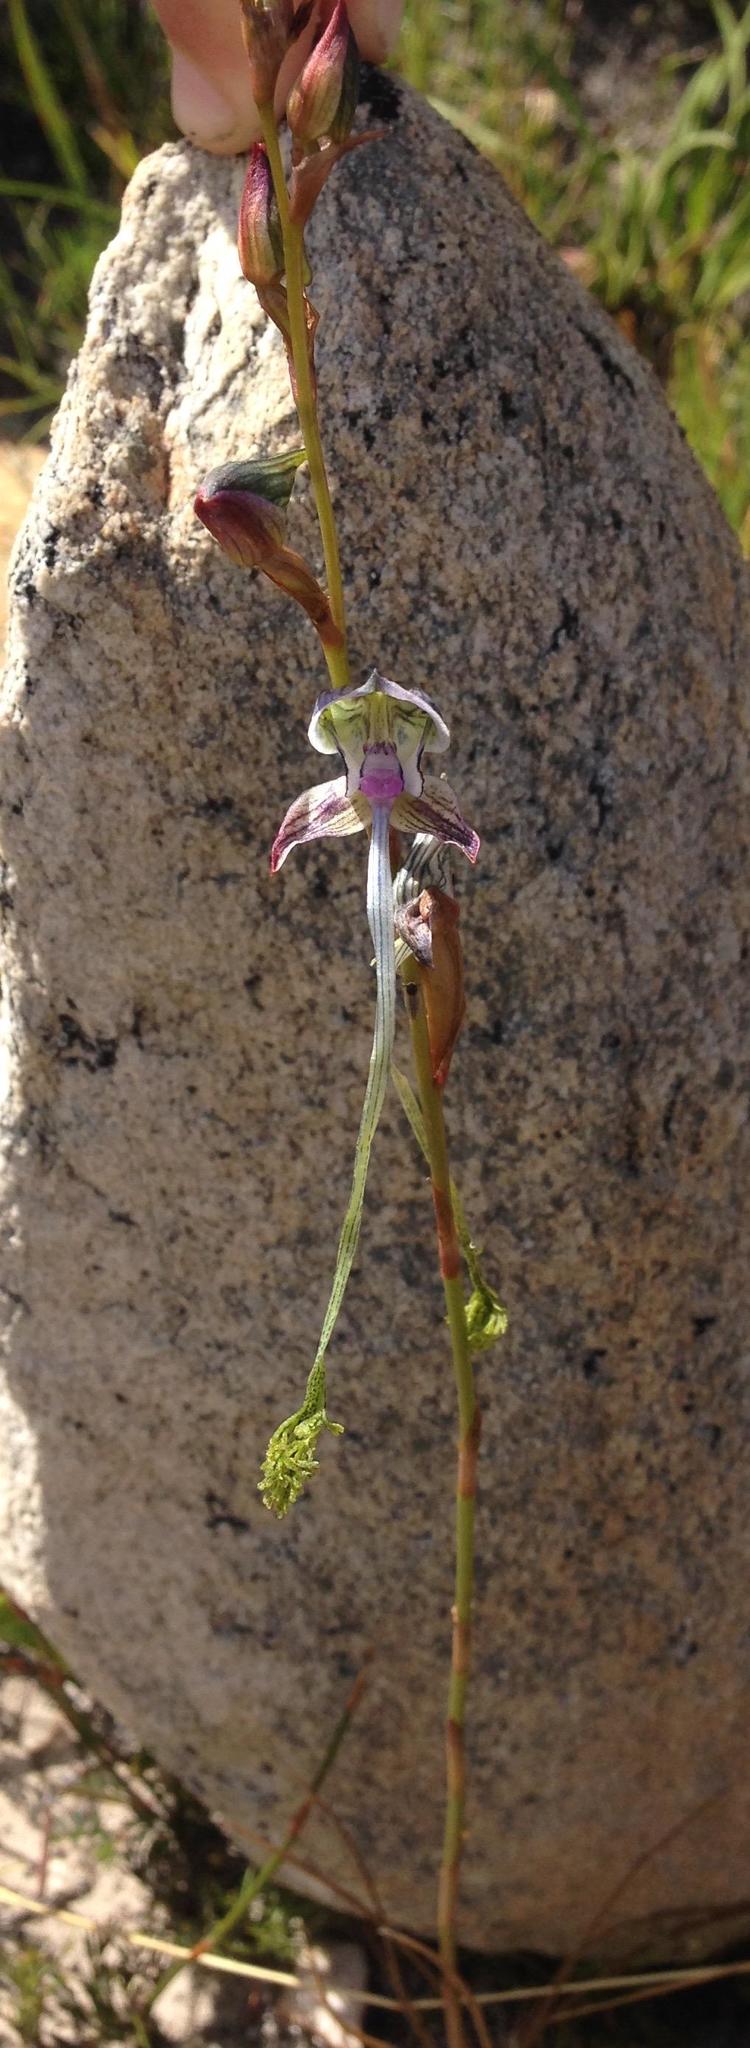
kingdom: Plantae
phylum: Tracheophyta
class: Liliopsida
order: Asparagales
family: Orchidaceae
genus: Disa
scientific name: Disa multifida
